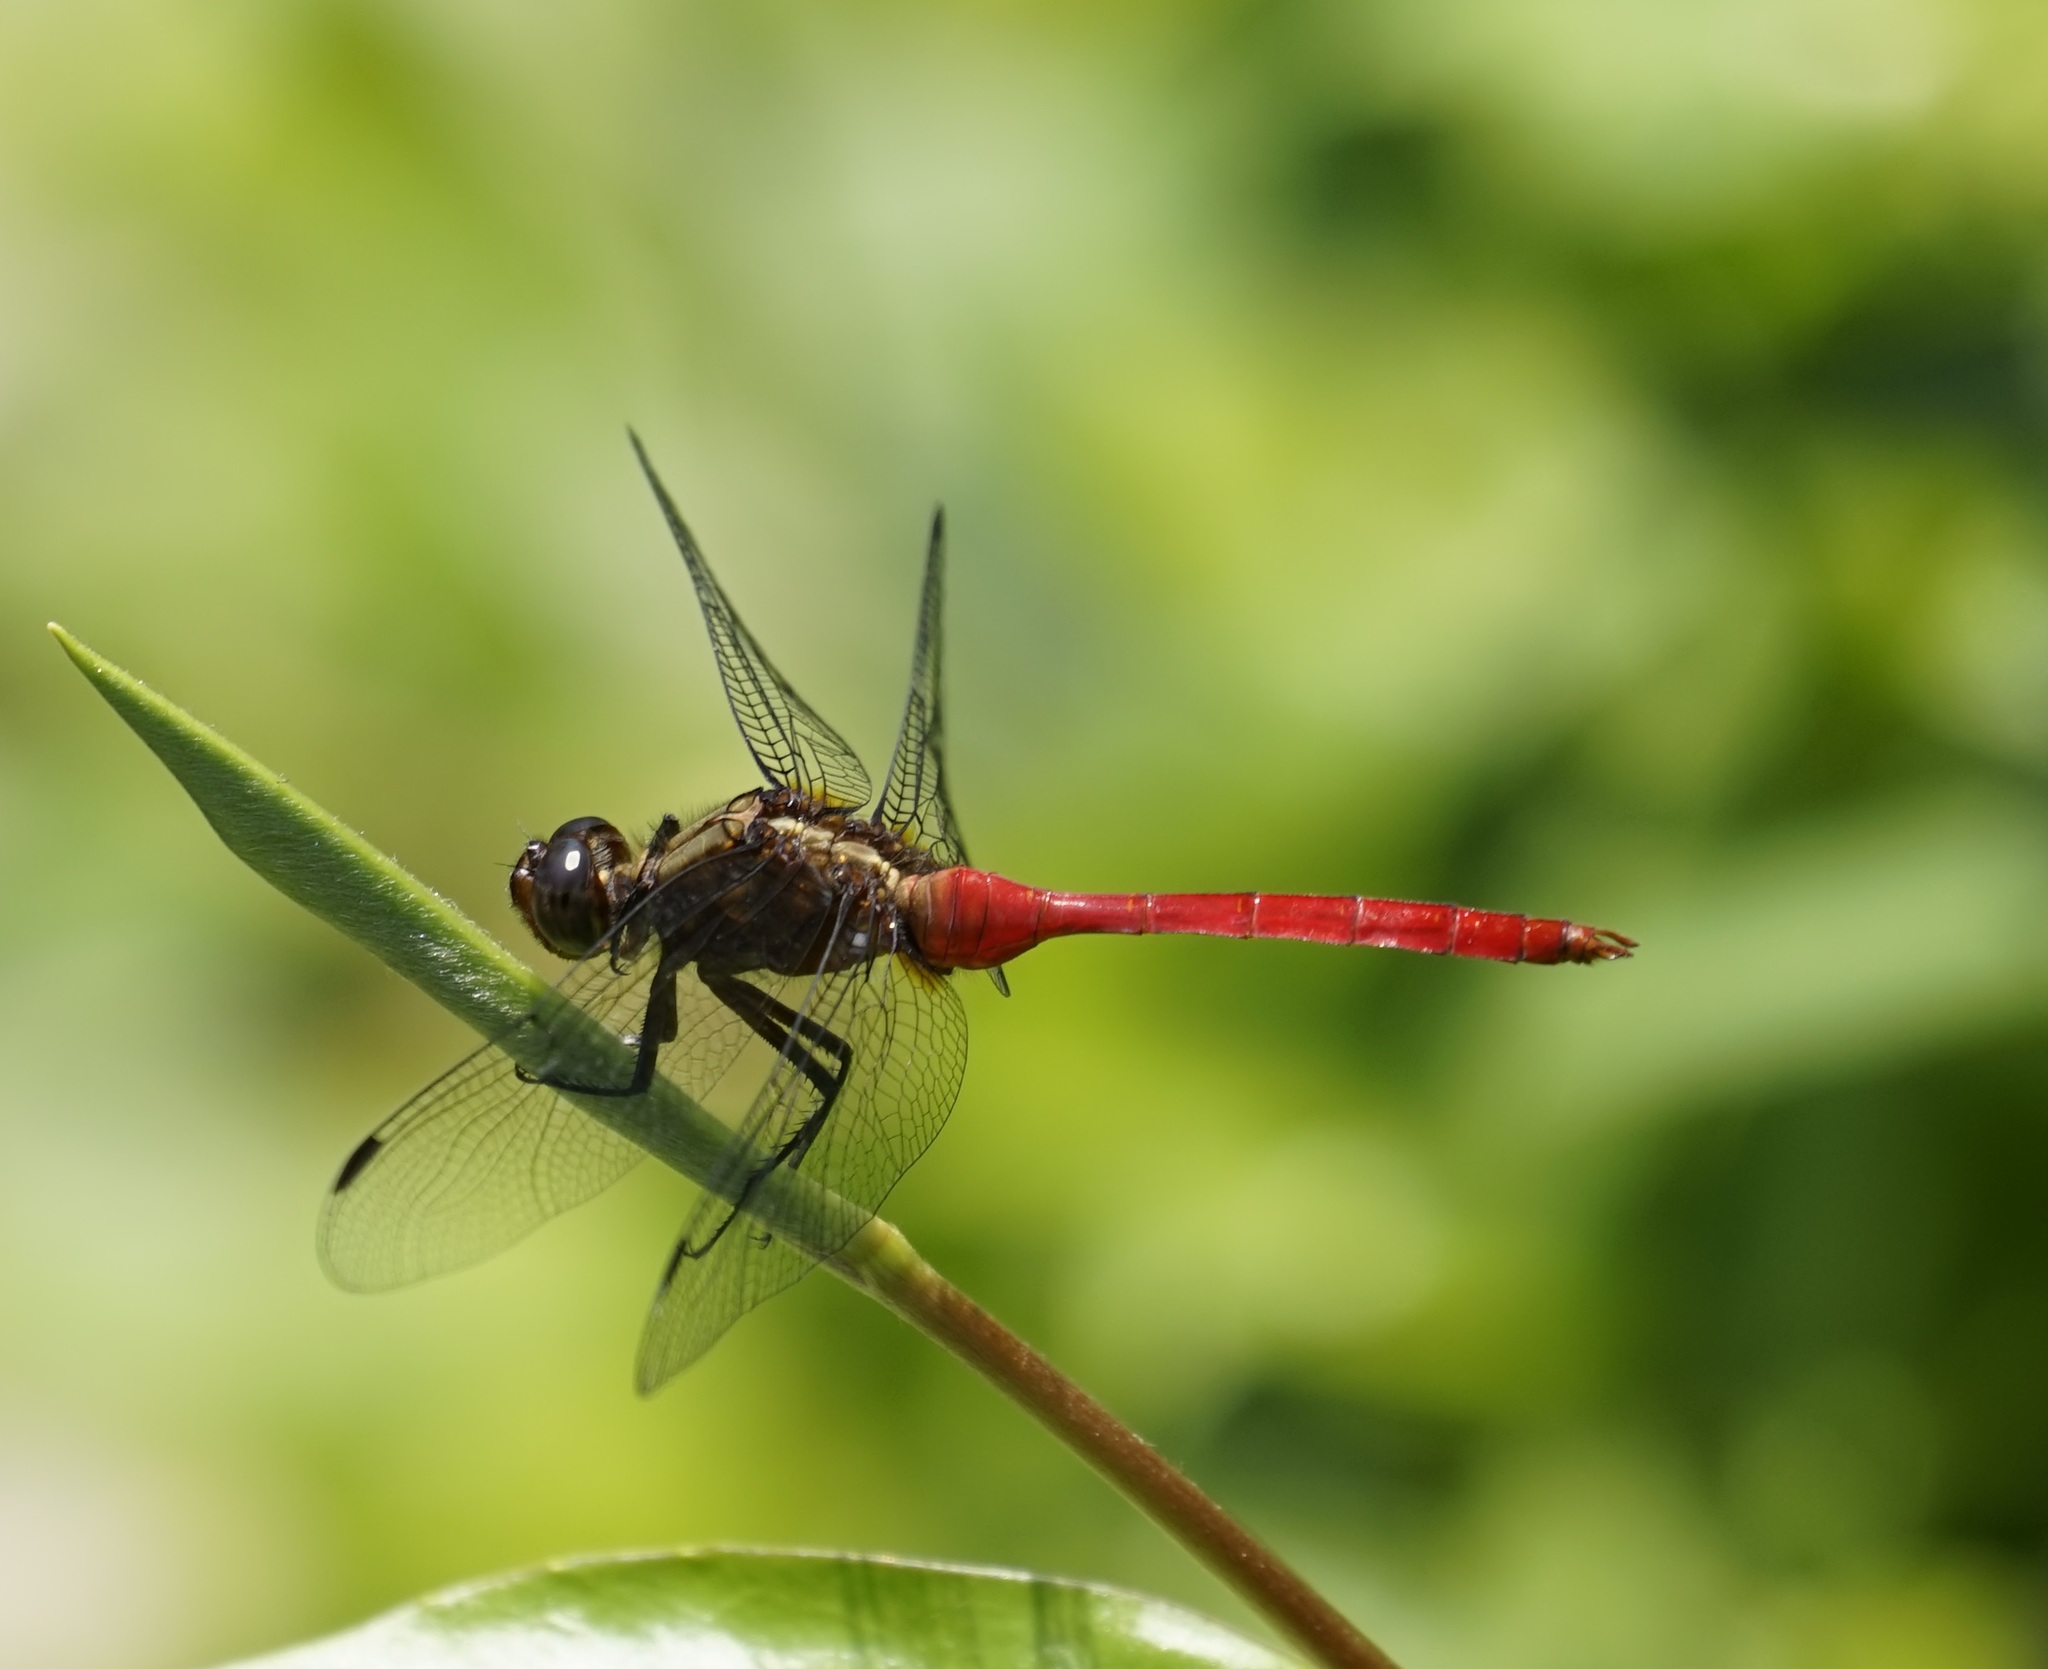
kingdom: Animalia
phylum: Arthropoda
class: Insecta
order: Odonata
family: Libellulidae
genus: Orthetrum
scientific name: Orthetrum villosovittatum
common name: Firery skimmer
